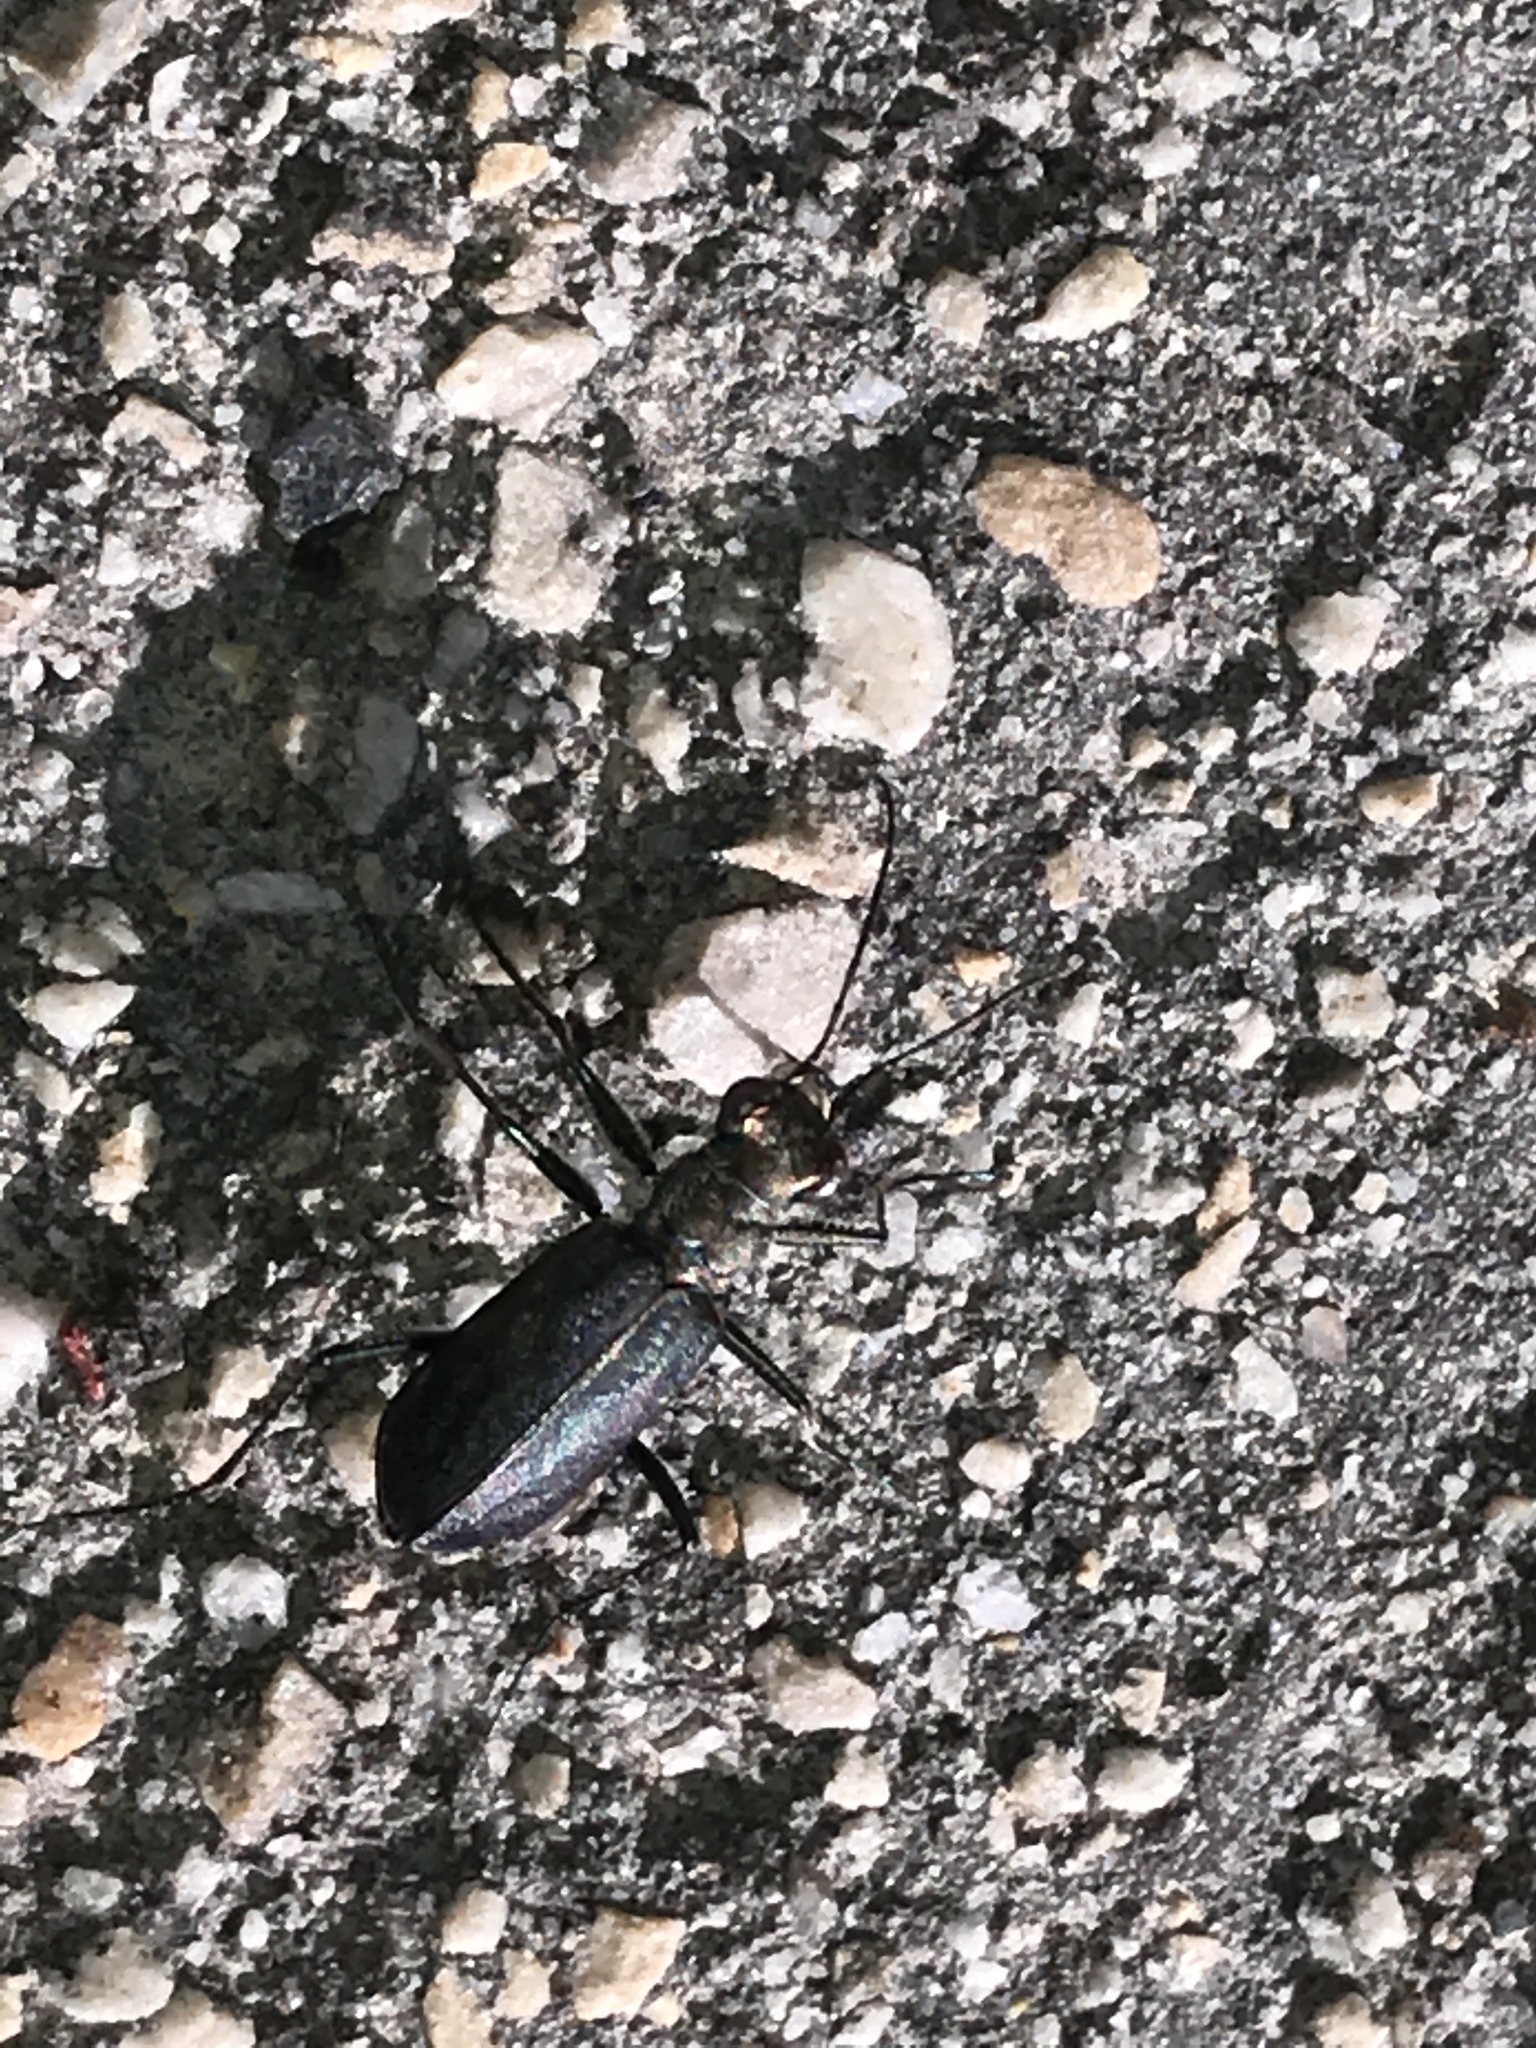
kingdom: Animalia
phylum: Arthropoda
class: Insecta
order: Coleoptera
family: Carabidae
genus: Cicindela
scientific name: Cicindela punctulata
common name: Punctured tiger beetle
